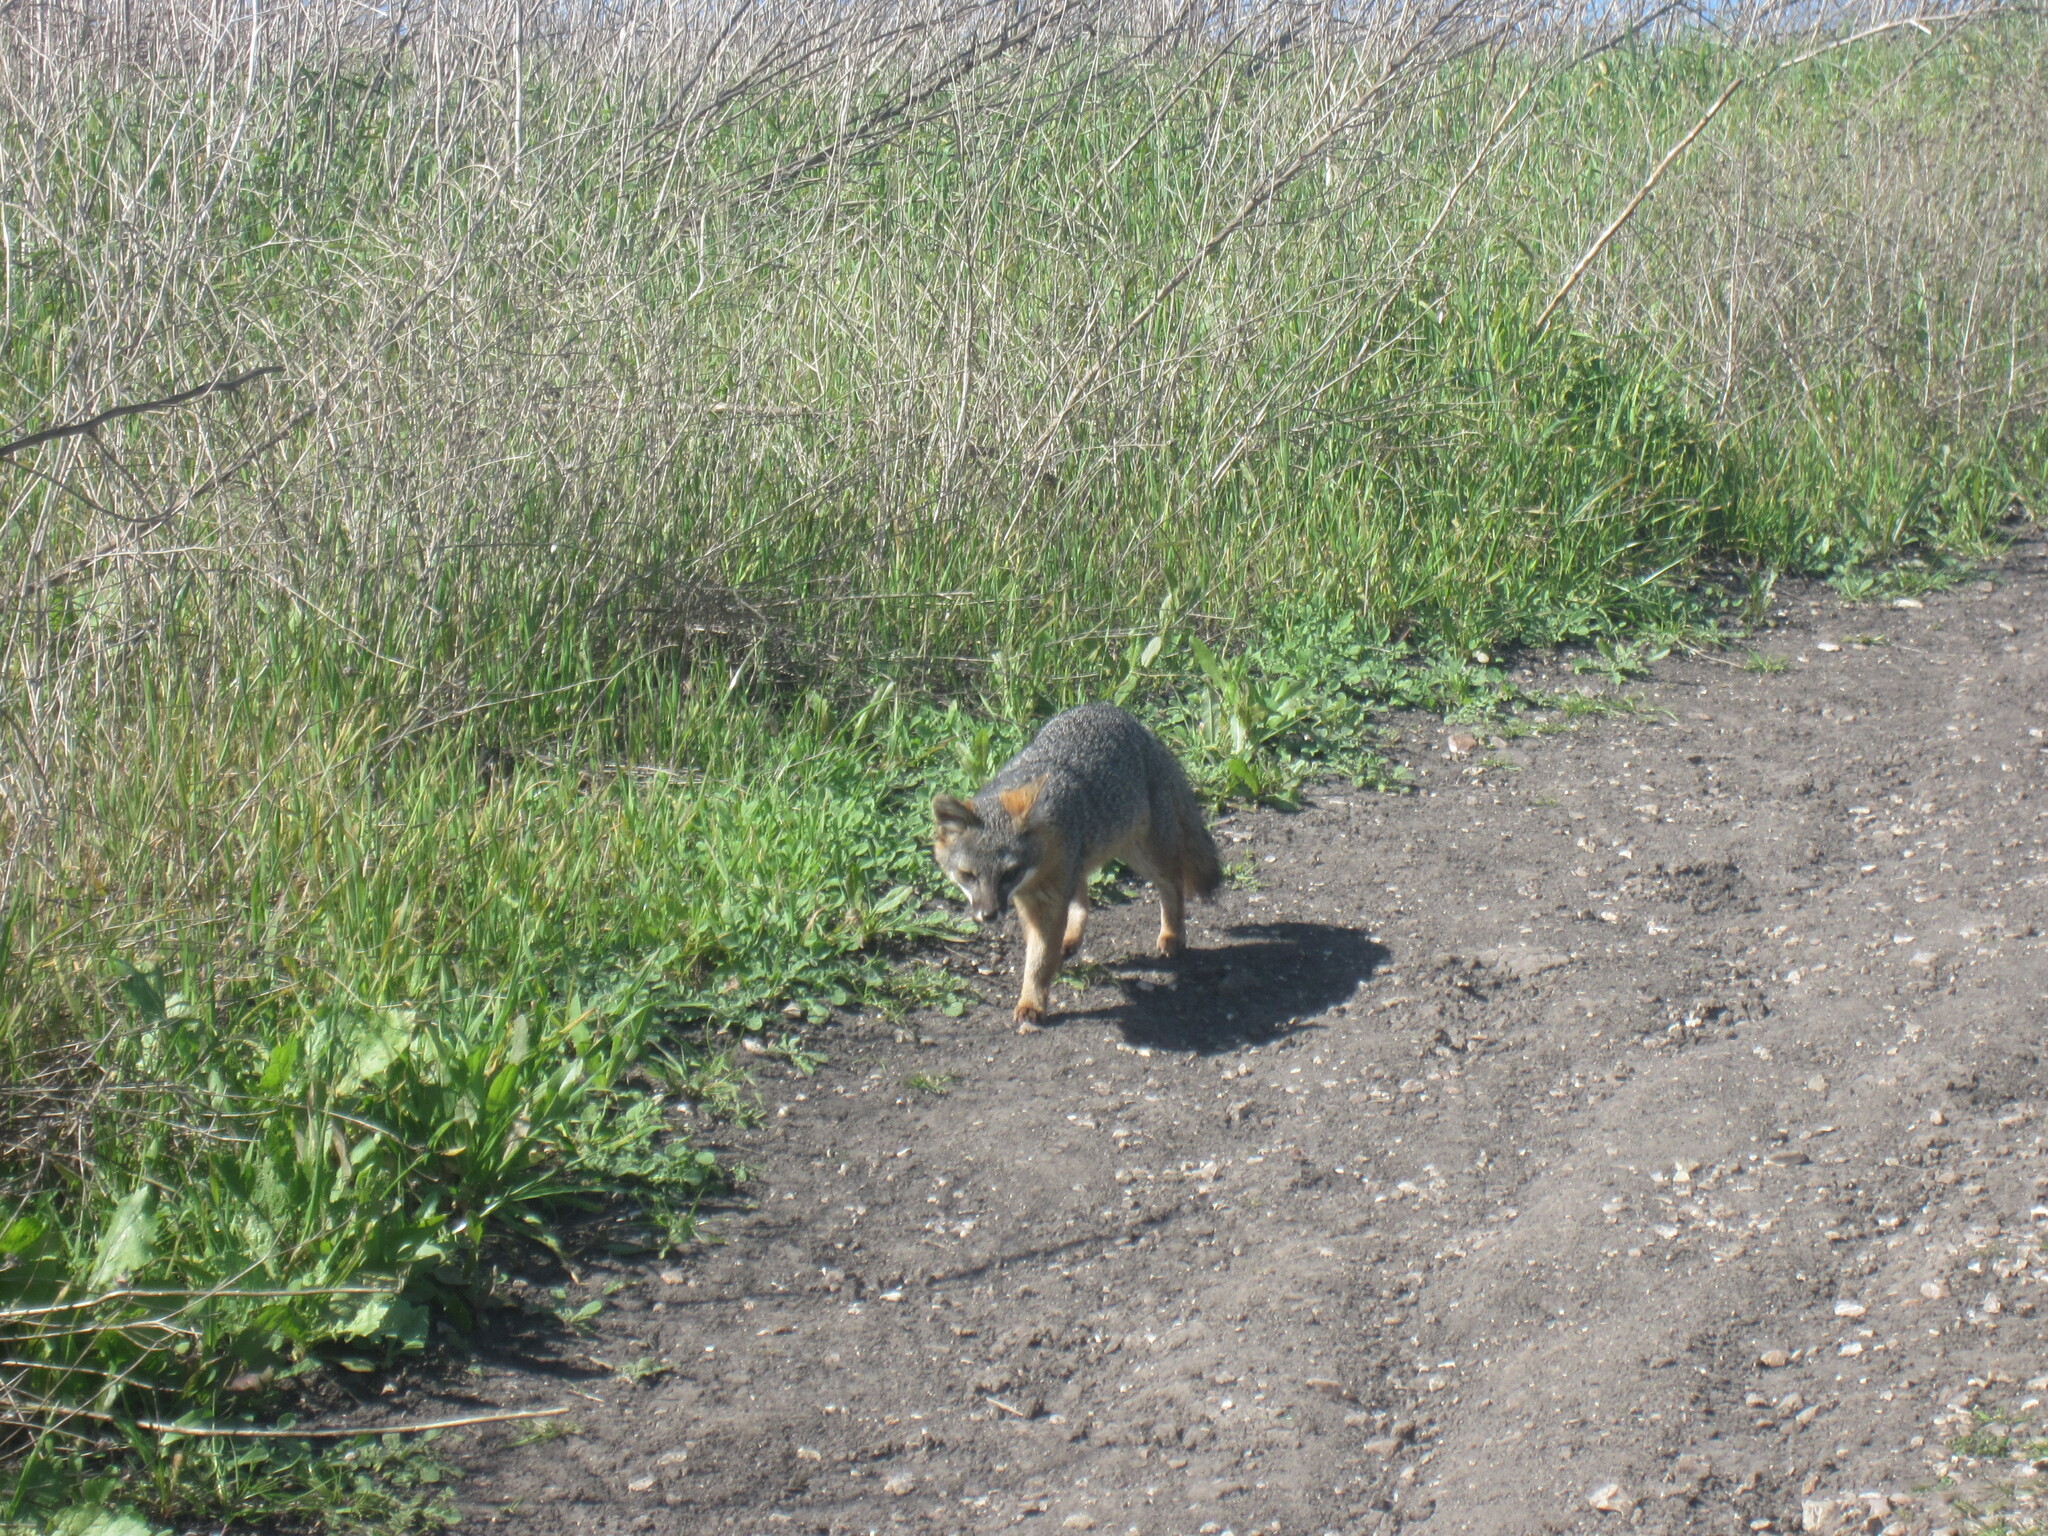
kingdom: Animalia
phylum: Chordata
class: Mammalia
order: Carnivora
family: Canidae
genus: Urocyon
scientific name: Urocyon littoralis
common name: Island gray fox
